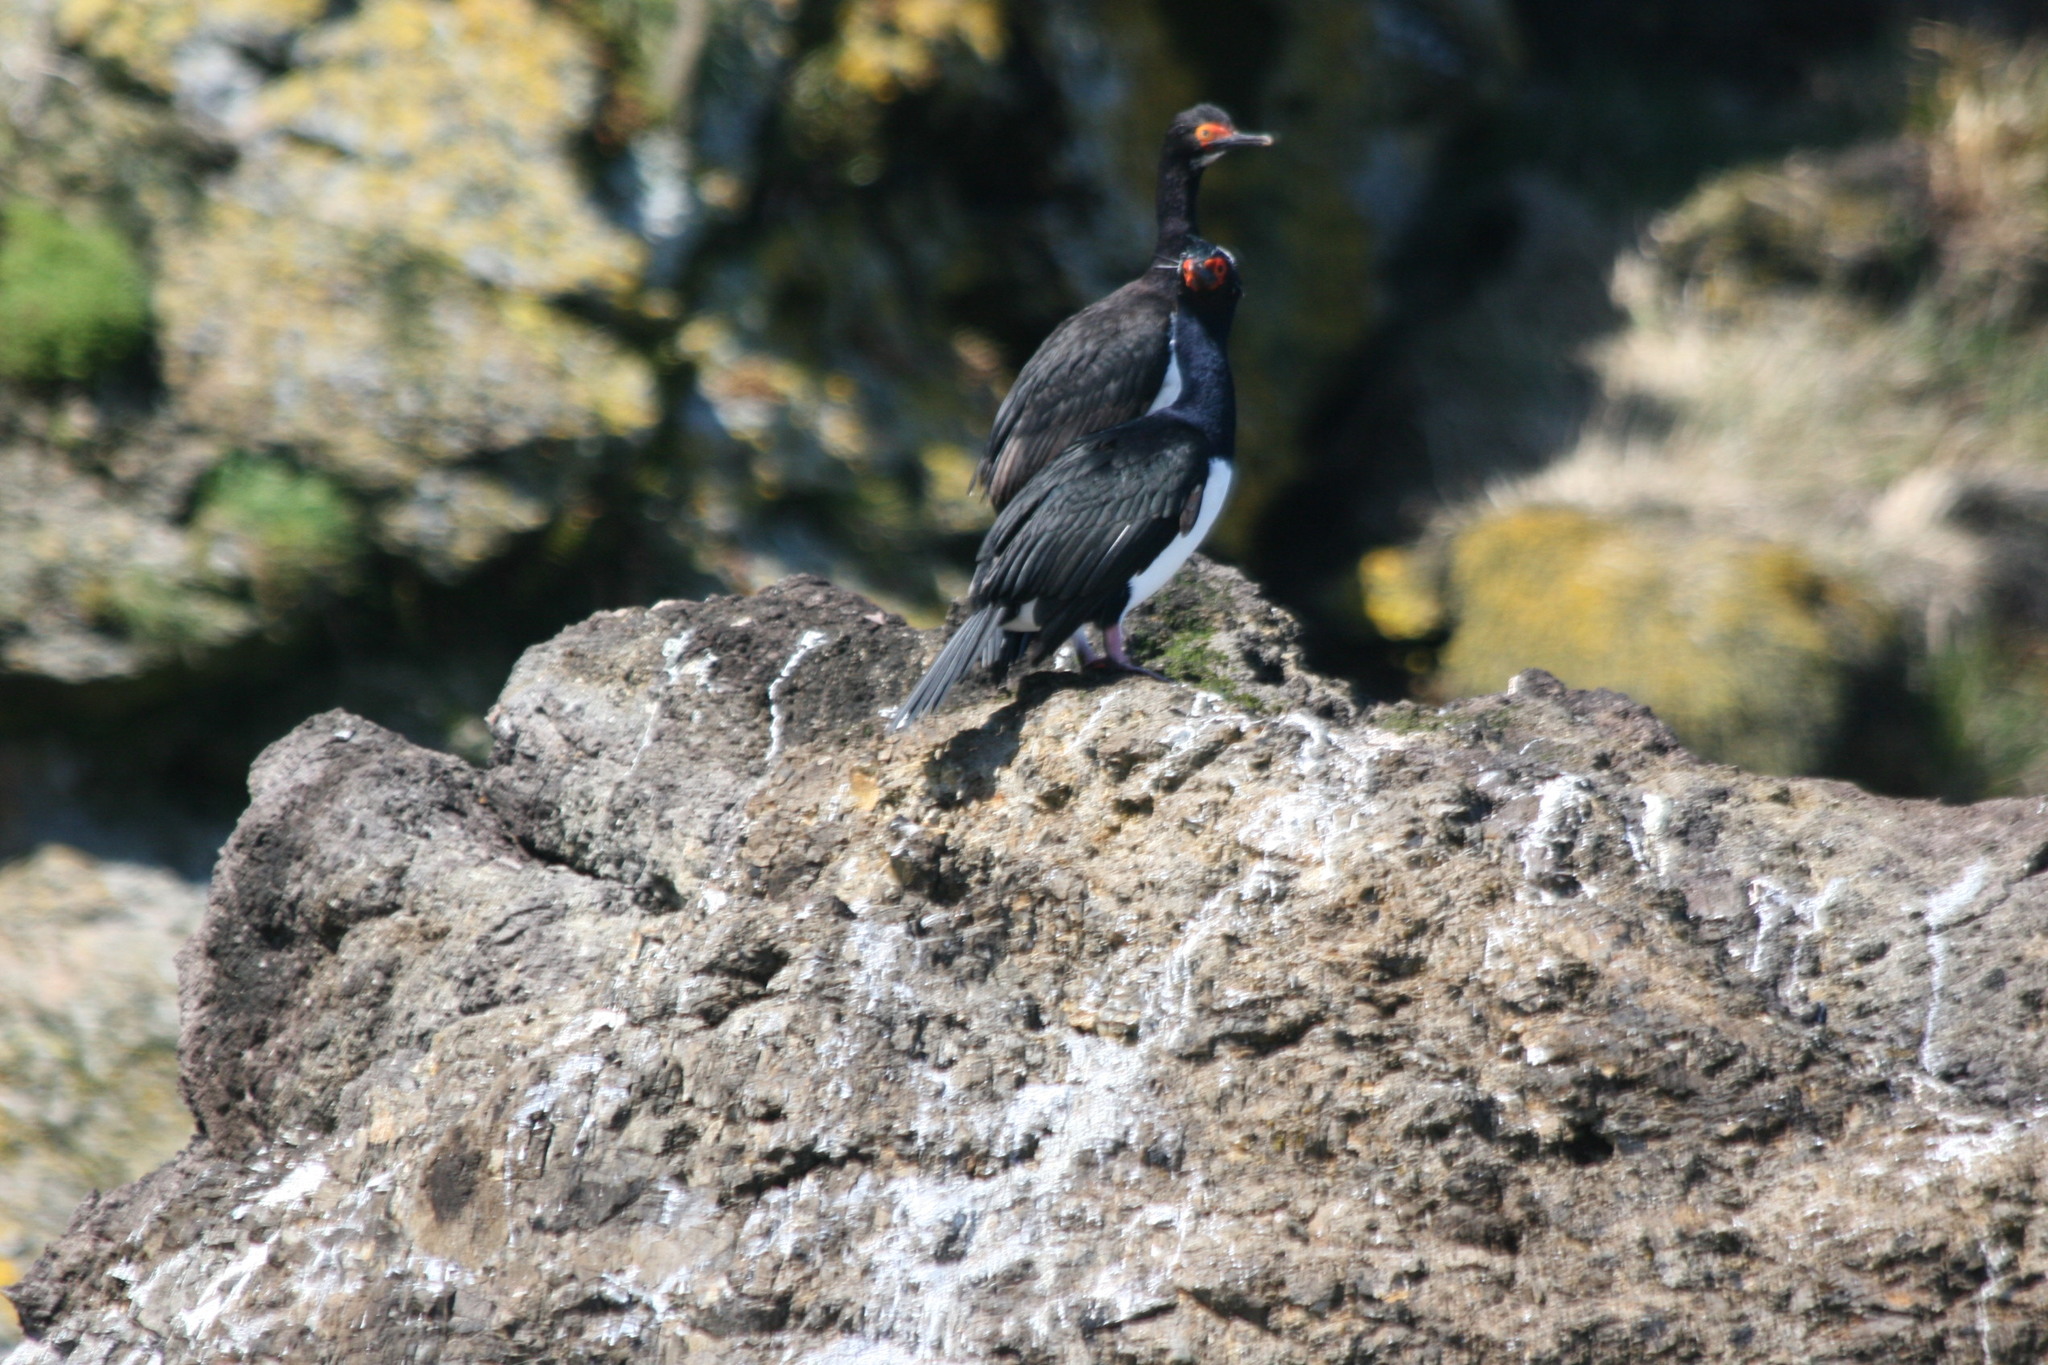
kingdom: Animalia
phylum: Chordata
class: Aves
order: Suliformes
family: Phalacrocoracidae
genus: Phalacrocorax
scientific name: Phalacrocorax magellanicus
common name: Rock shag
